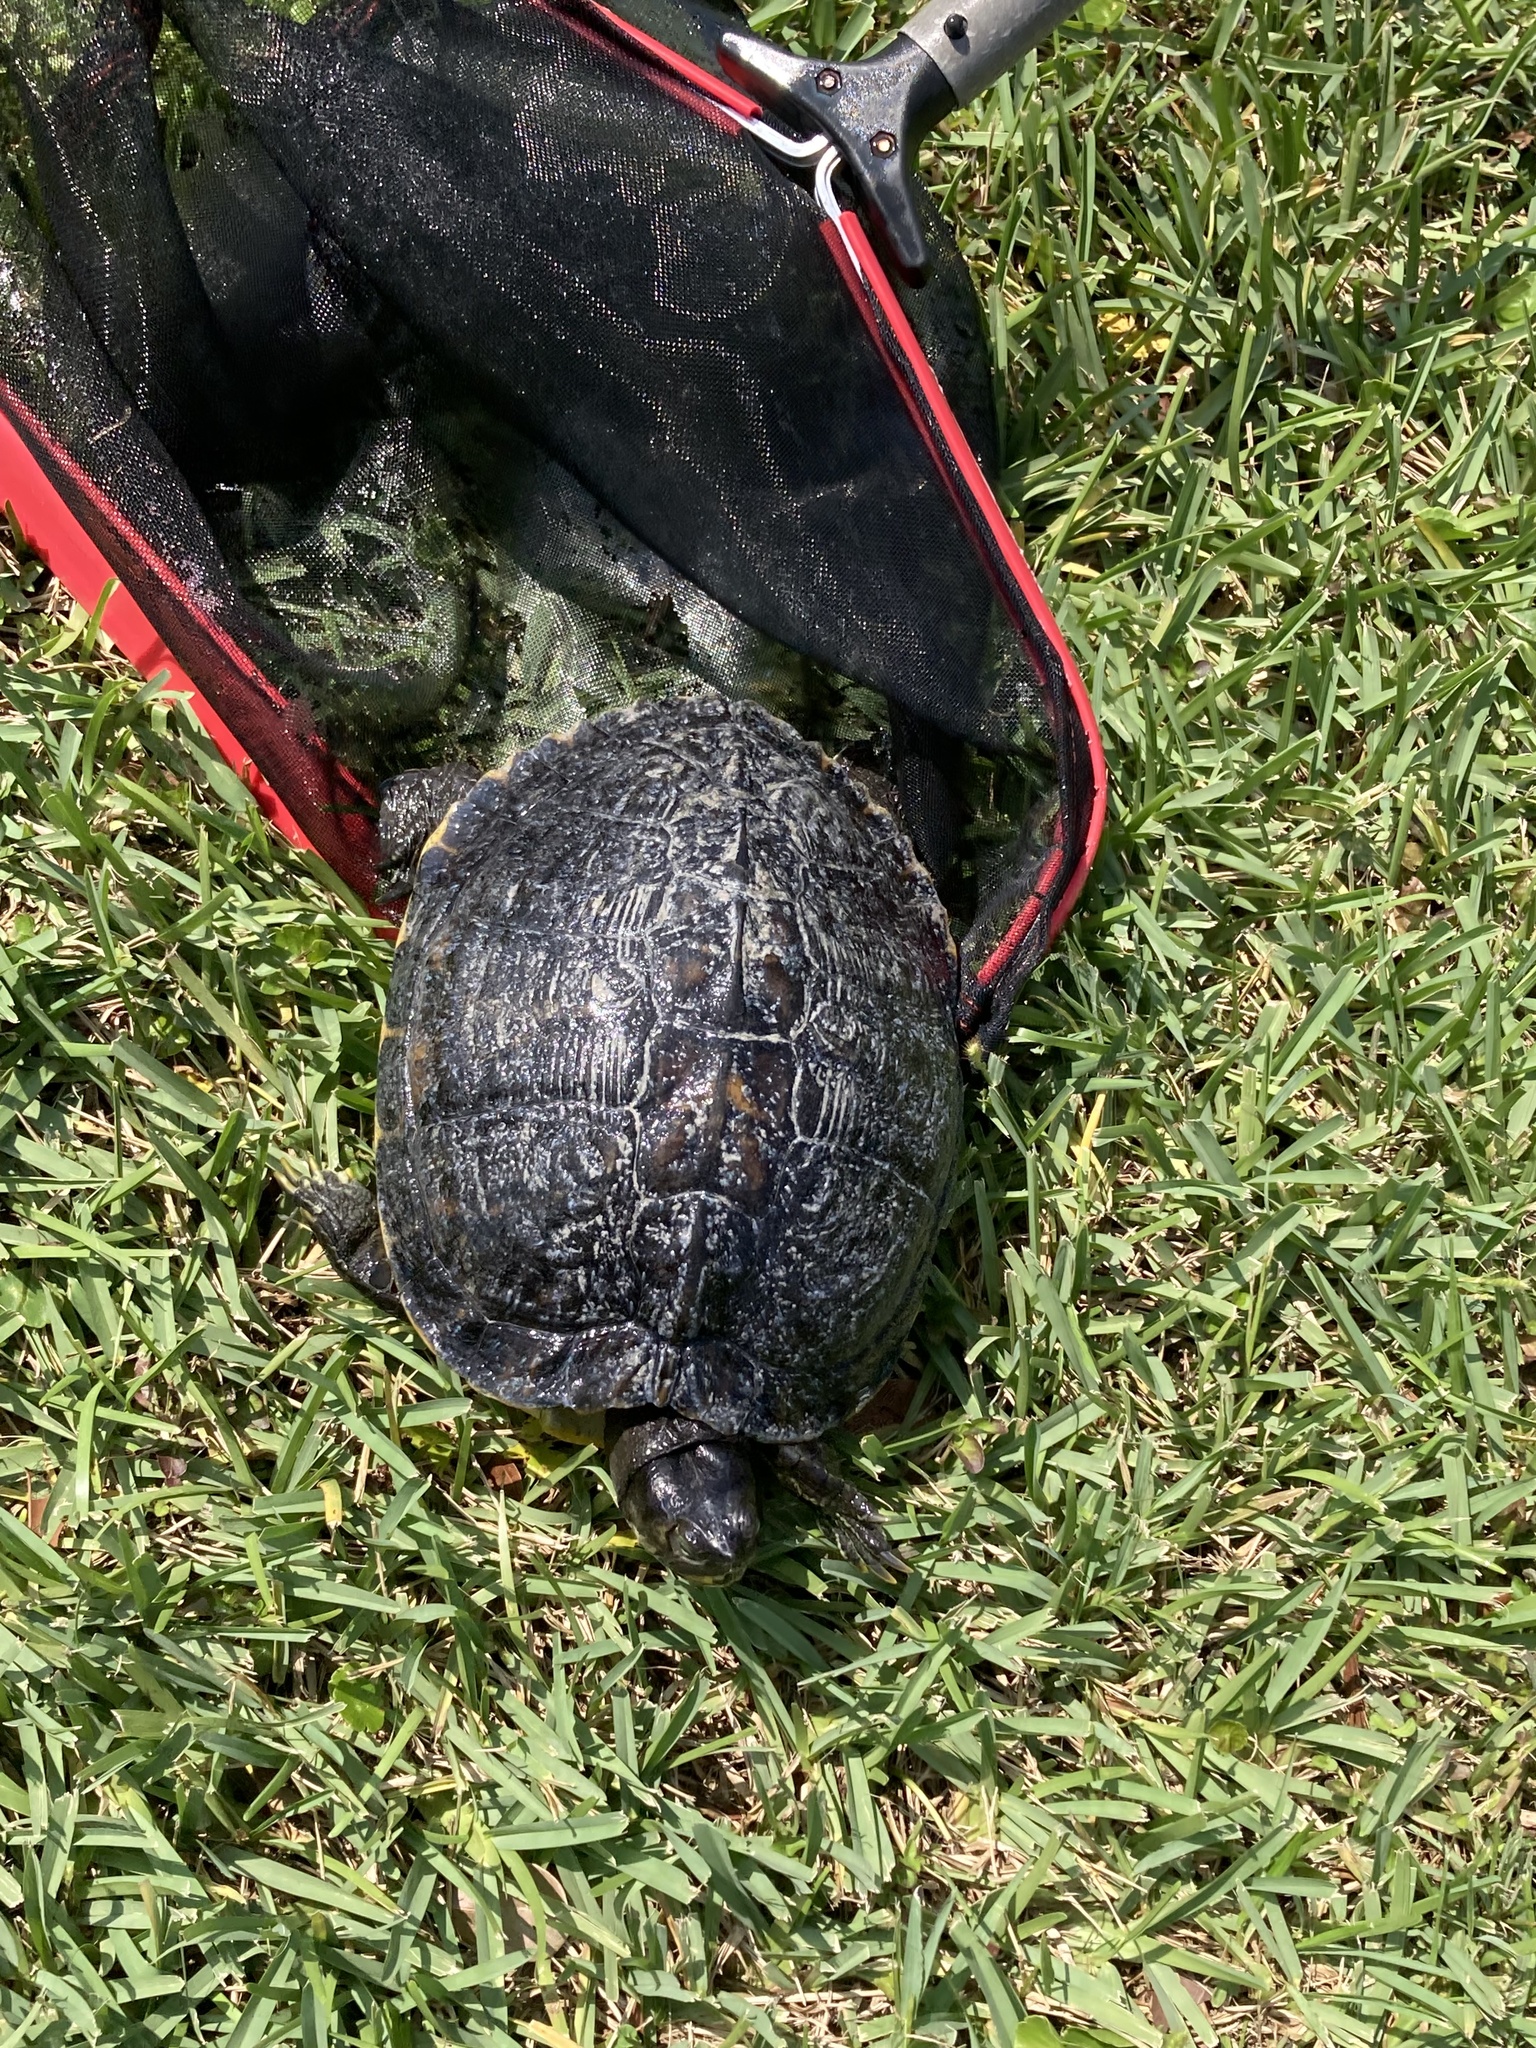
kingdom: Animalia
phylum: Chordata
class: Testudines
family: Emydidae
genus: Trachemys
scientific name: Trachemys scripta
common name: Slider
